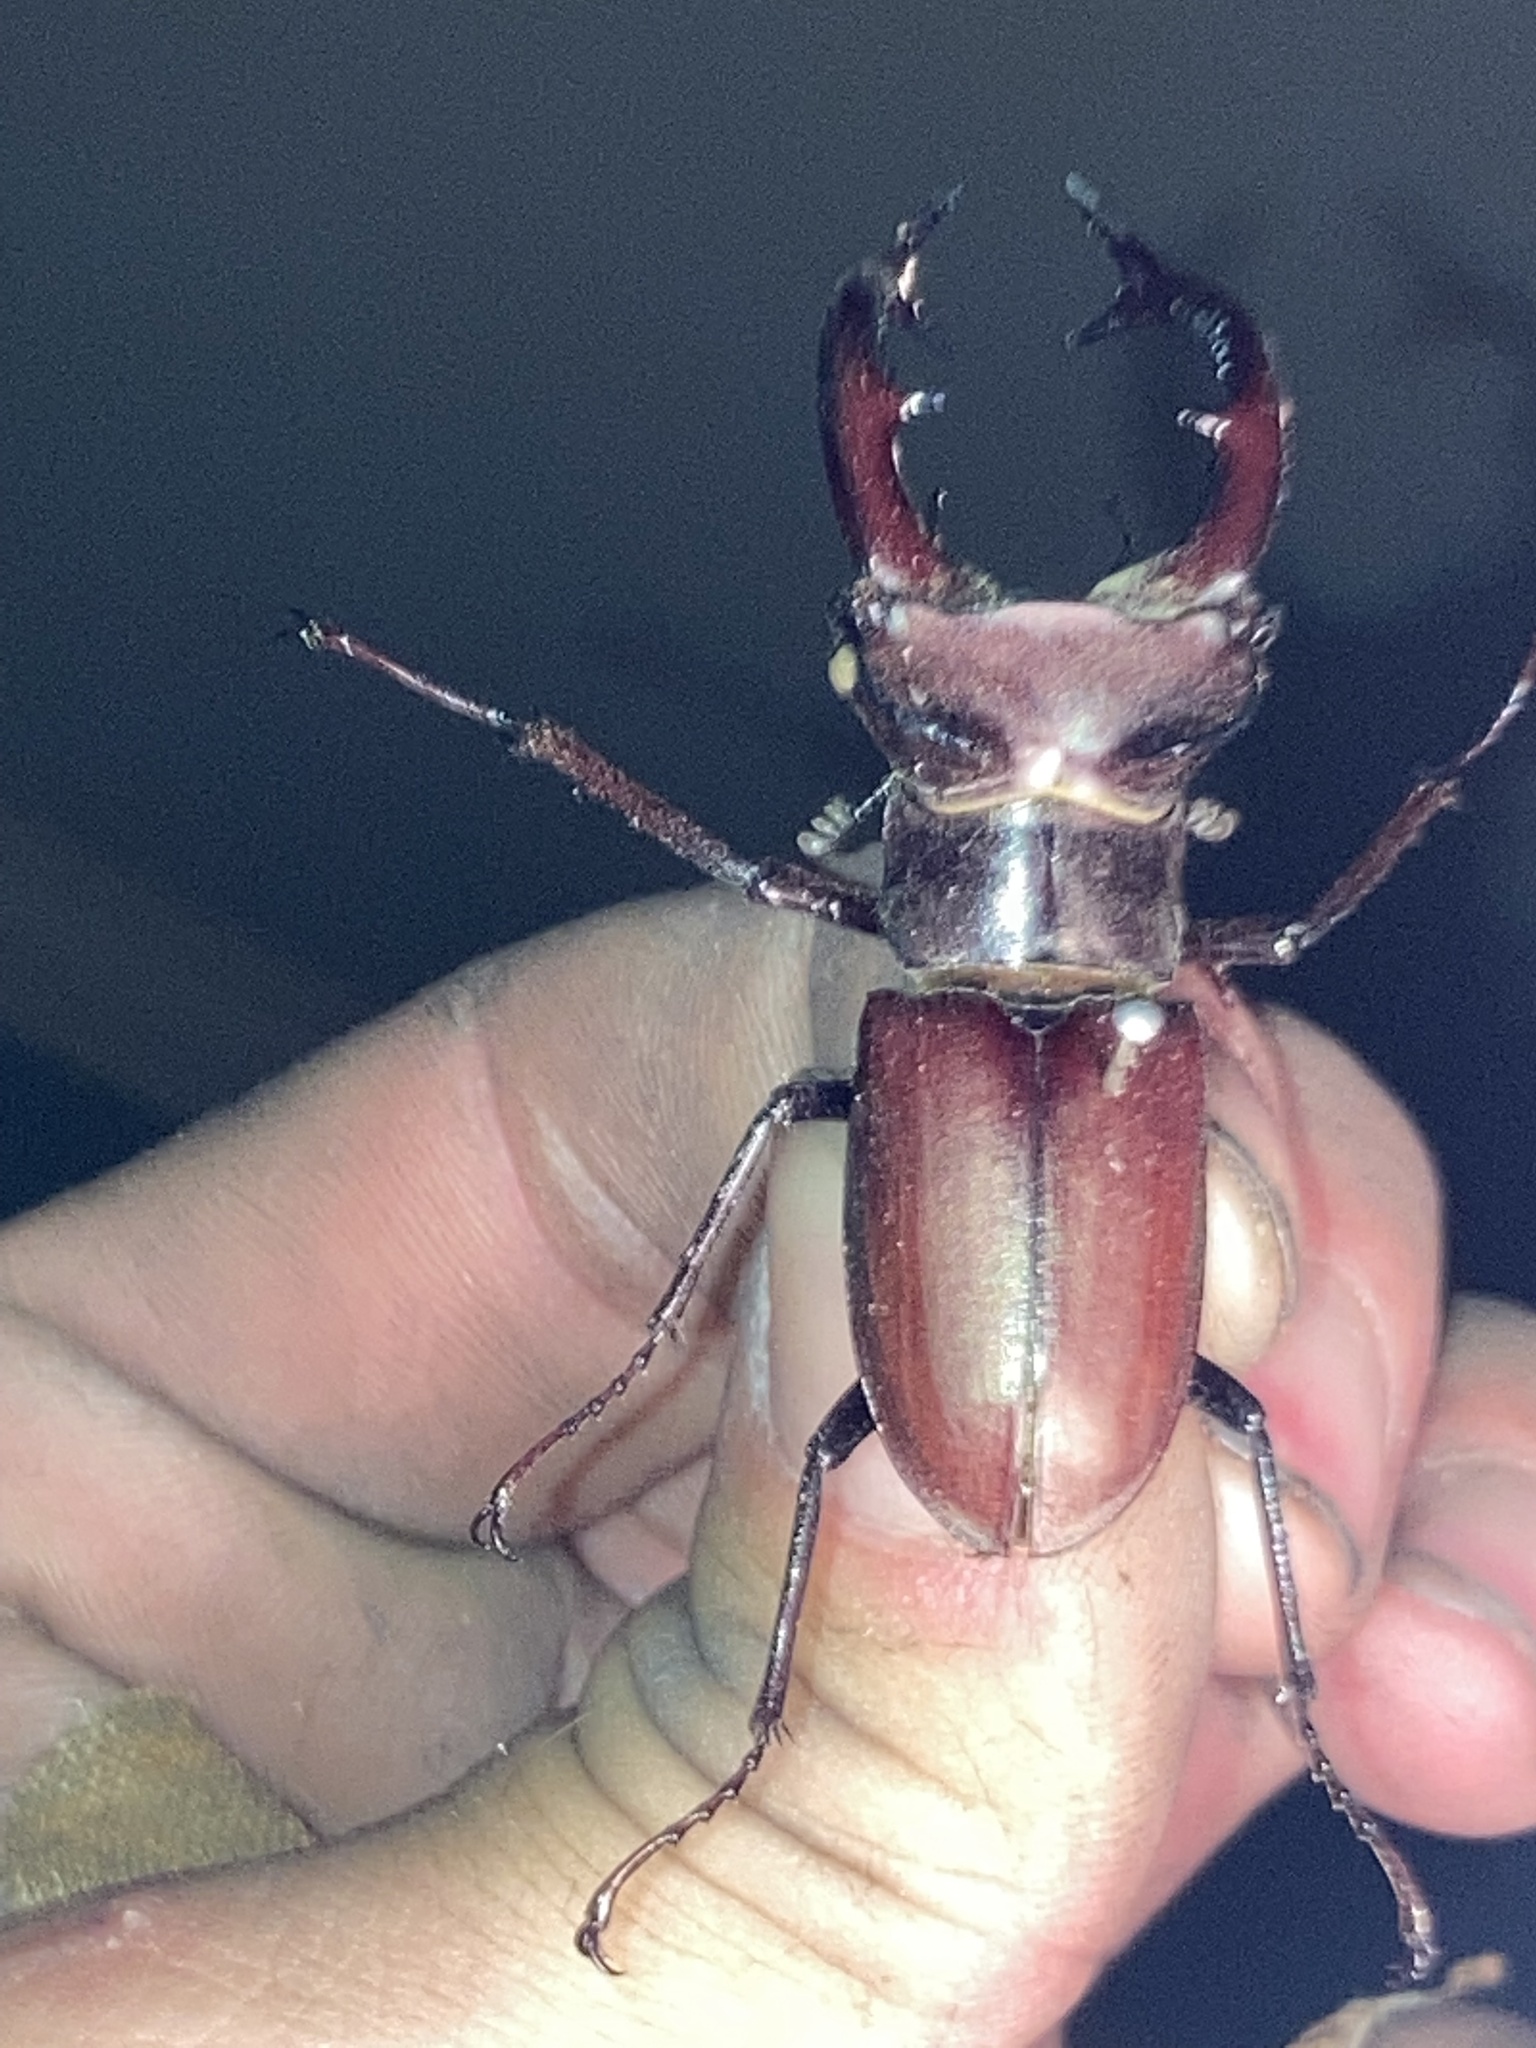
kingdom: Animalia
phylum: Arthropoda
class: Insecta
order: Coleoptera
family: Lucanidae
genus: Lucanus
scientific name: Lucanus elaphus
